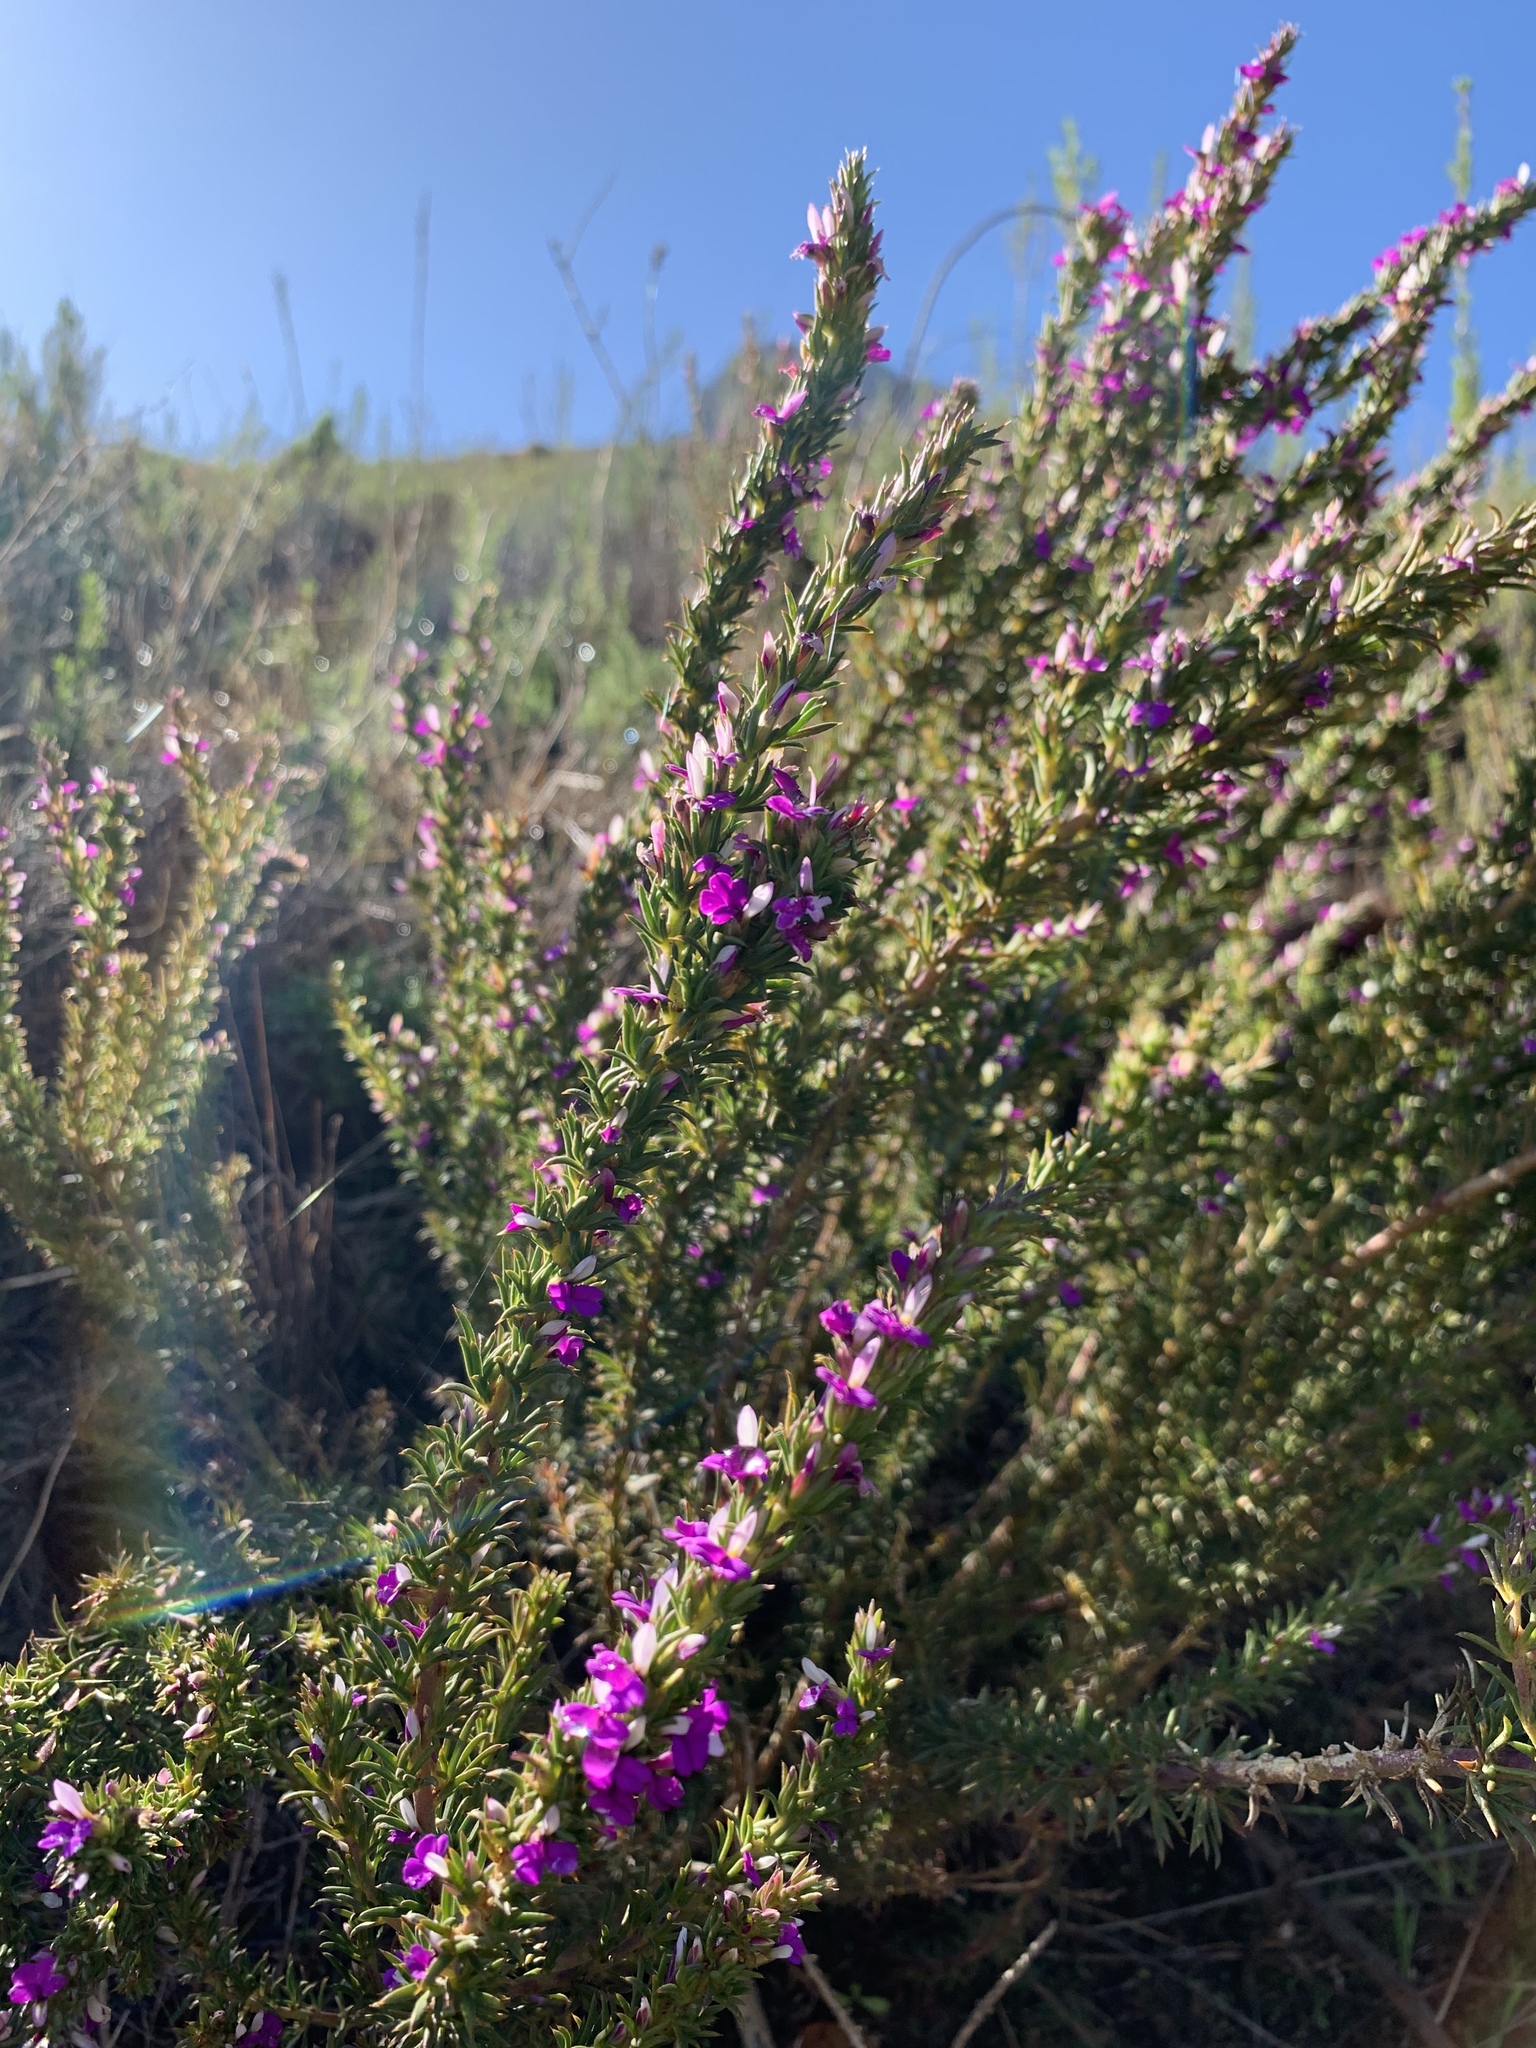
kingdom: Plantae
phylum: Tracheophyta
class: Magnoliopsida
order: Fabales
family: Polygalaceae
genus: Muraltia
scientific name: Muraltia heisteria
